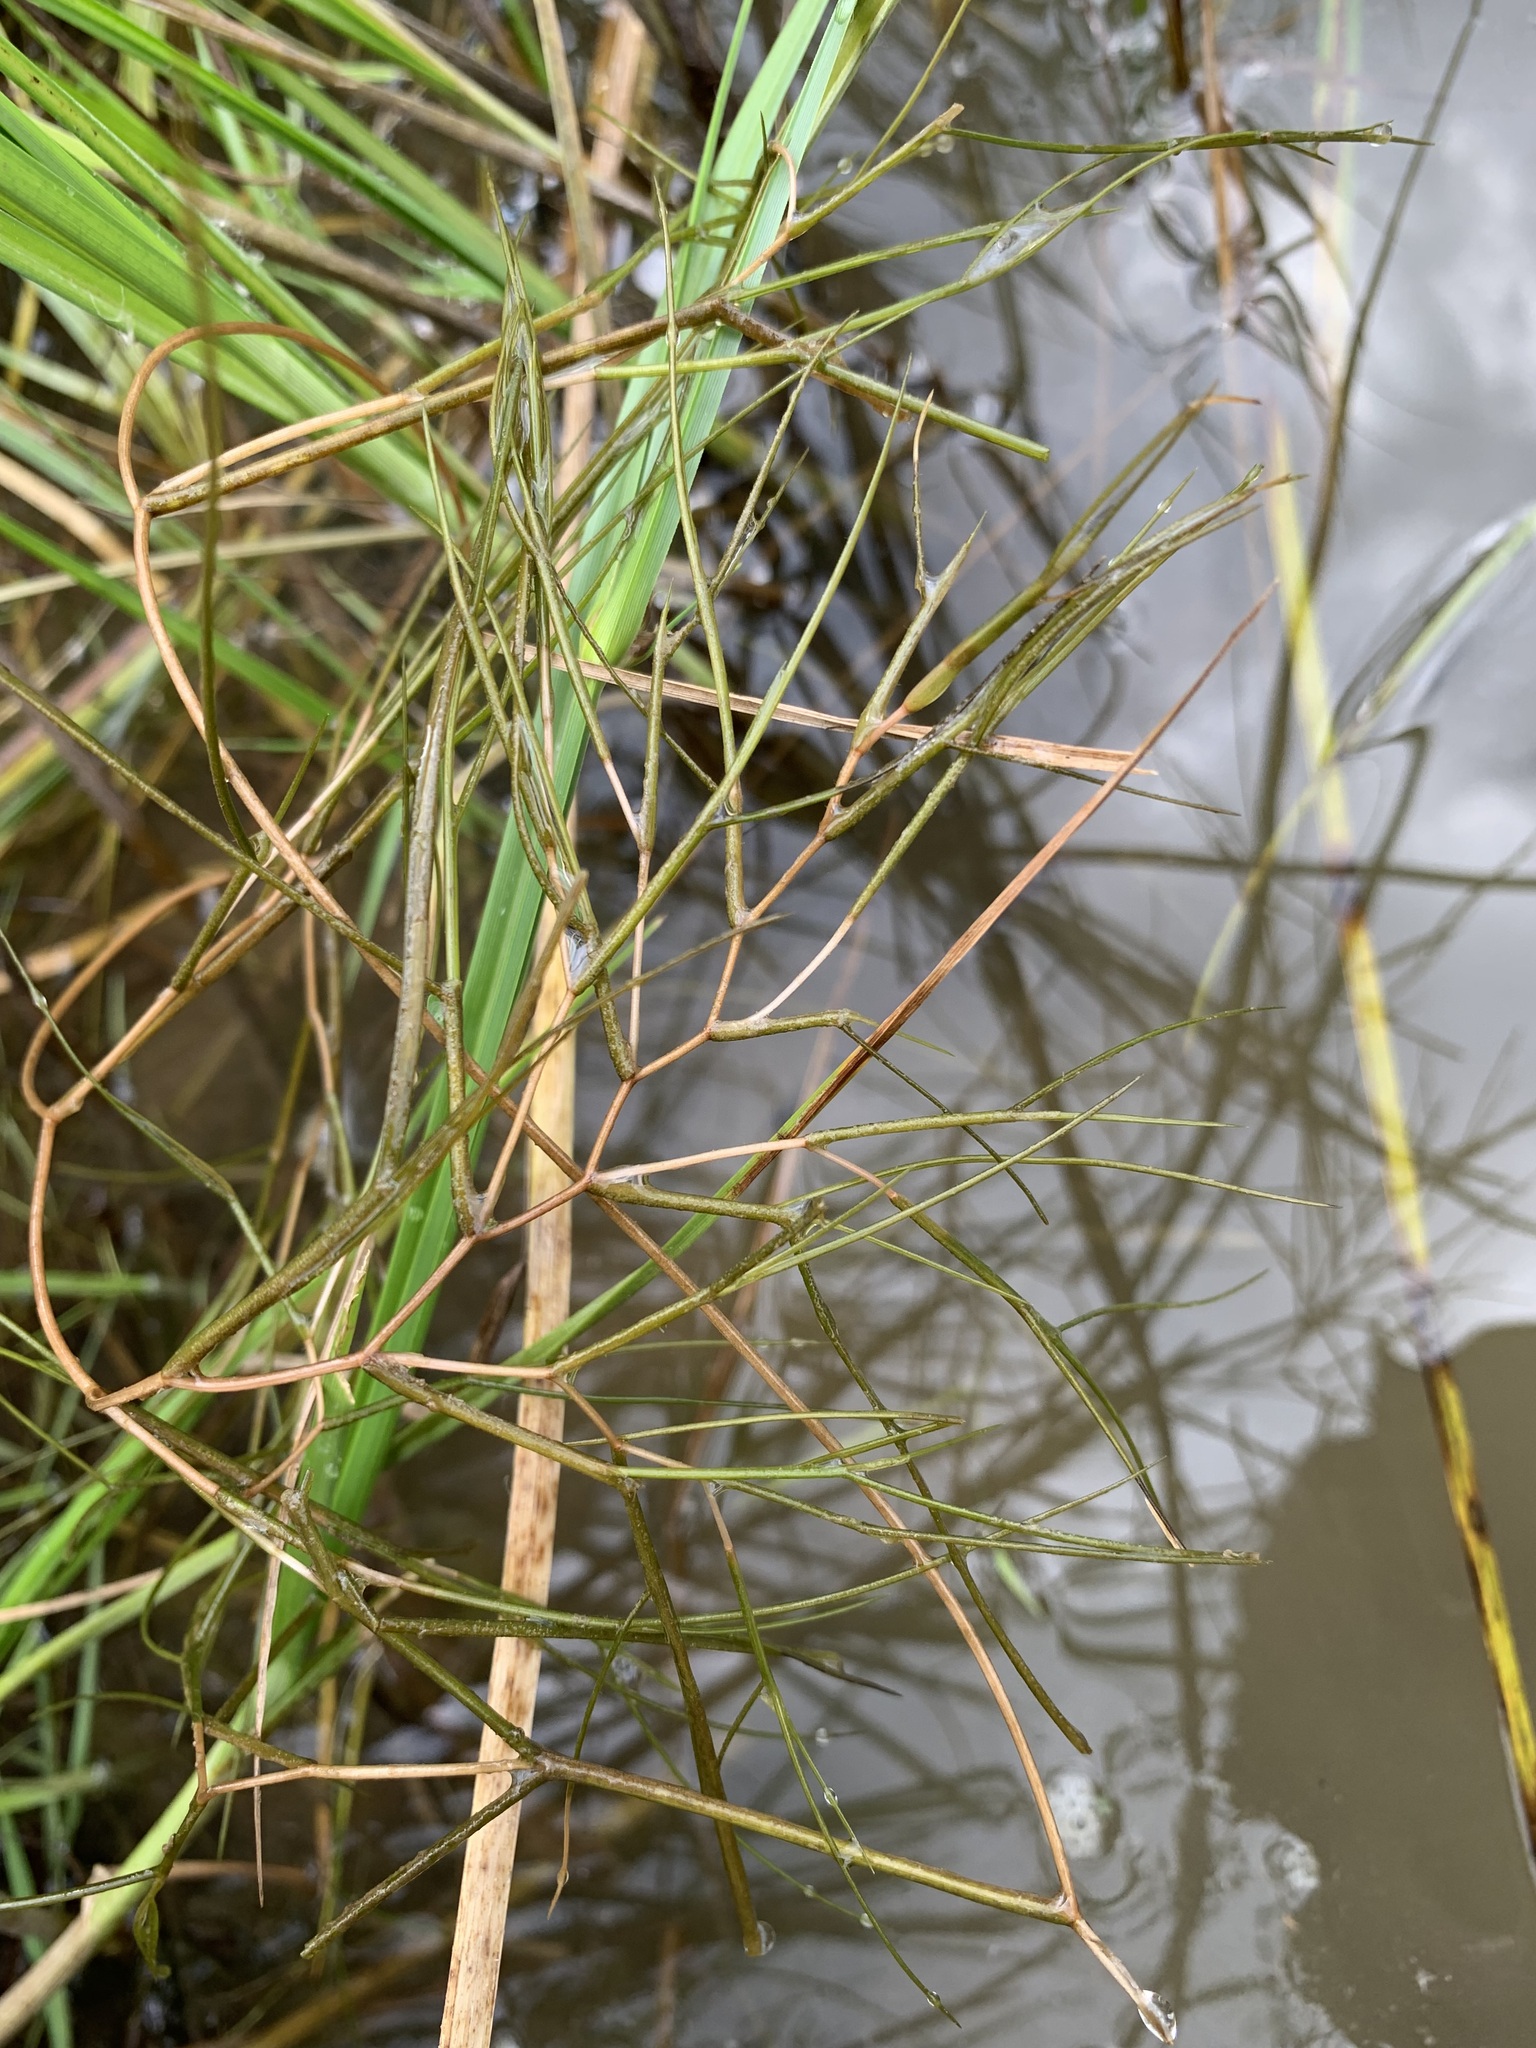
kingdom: Plantae
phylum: Tracheophyta
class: Liliopsida
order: Alismatales
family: Potamogetonaceae
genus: Stuckenia
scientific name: Stuckenia pectinata
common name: Sago pondweed
